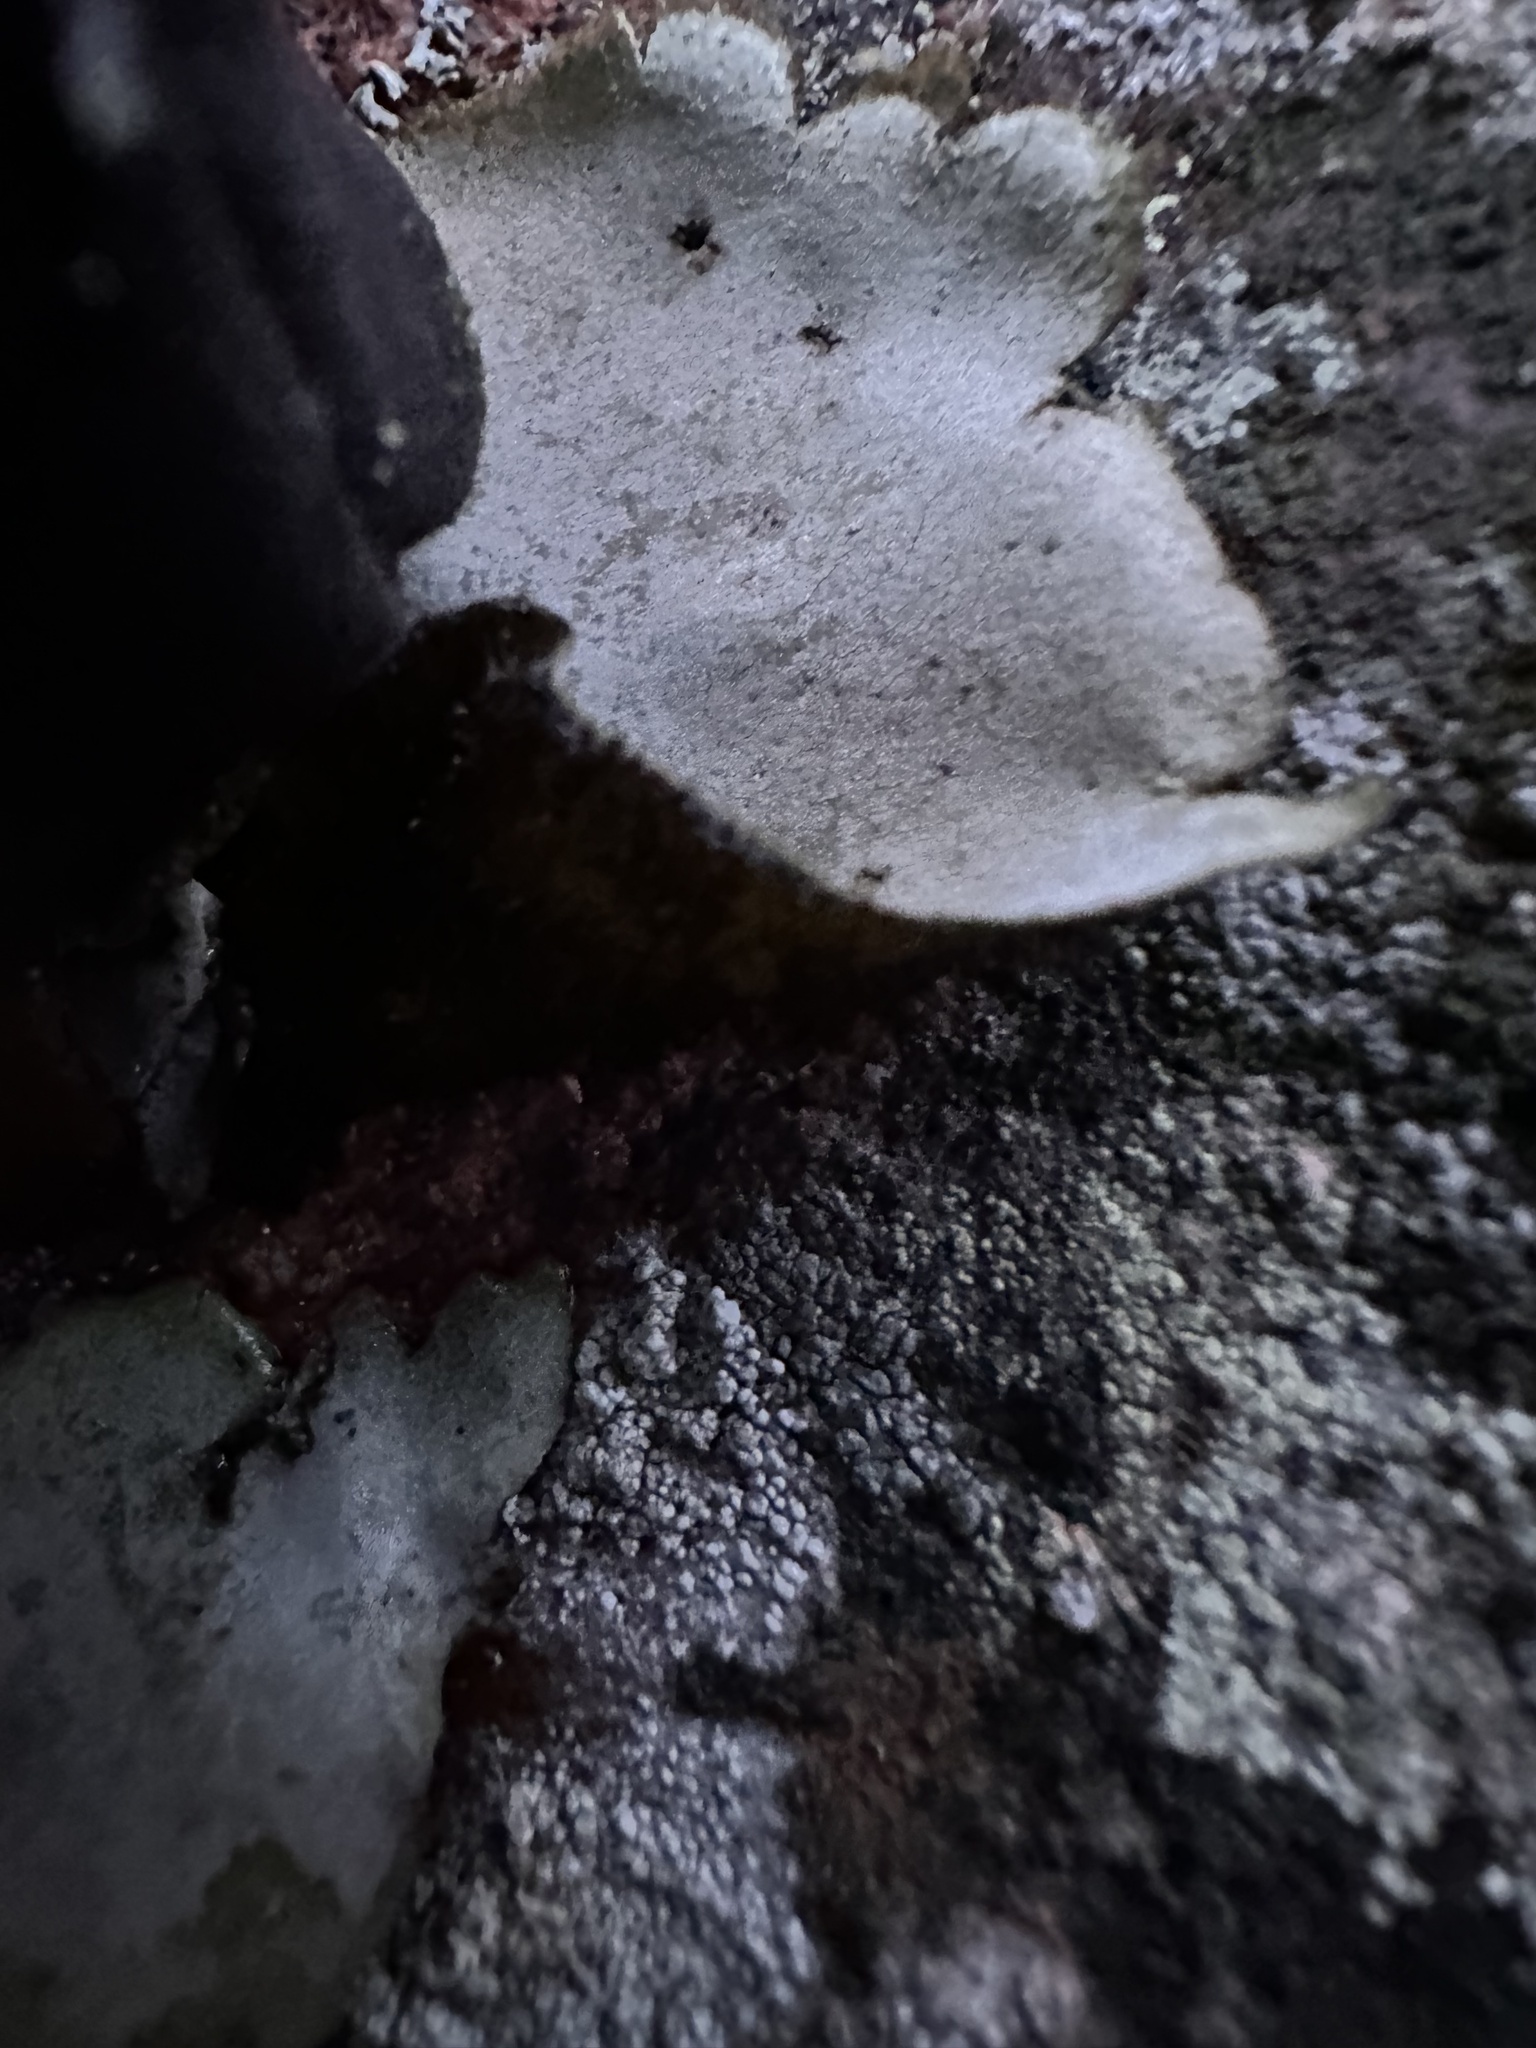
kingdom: Fungi
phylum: Ascomycota
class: Lecanoromycetes
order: Umbilicariales
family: Umbilicariaceae
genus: Umbilicaria
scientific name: Umbilicaria hirsuta
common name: Granulating rocktripe lichen
